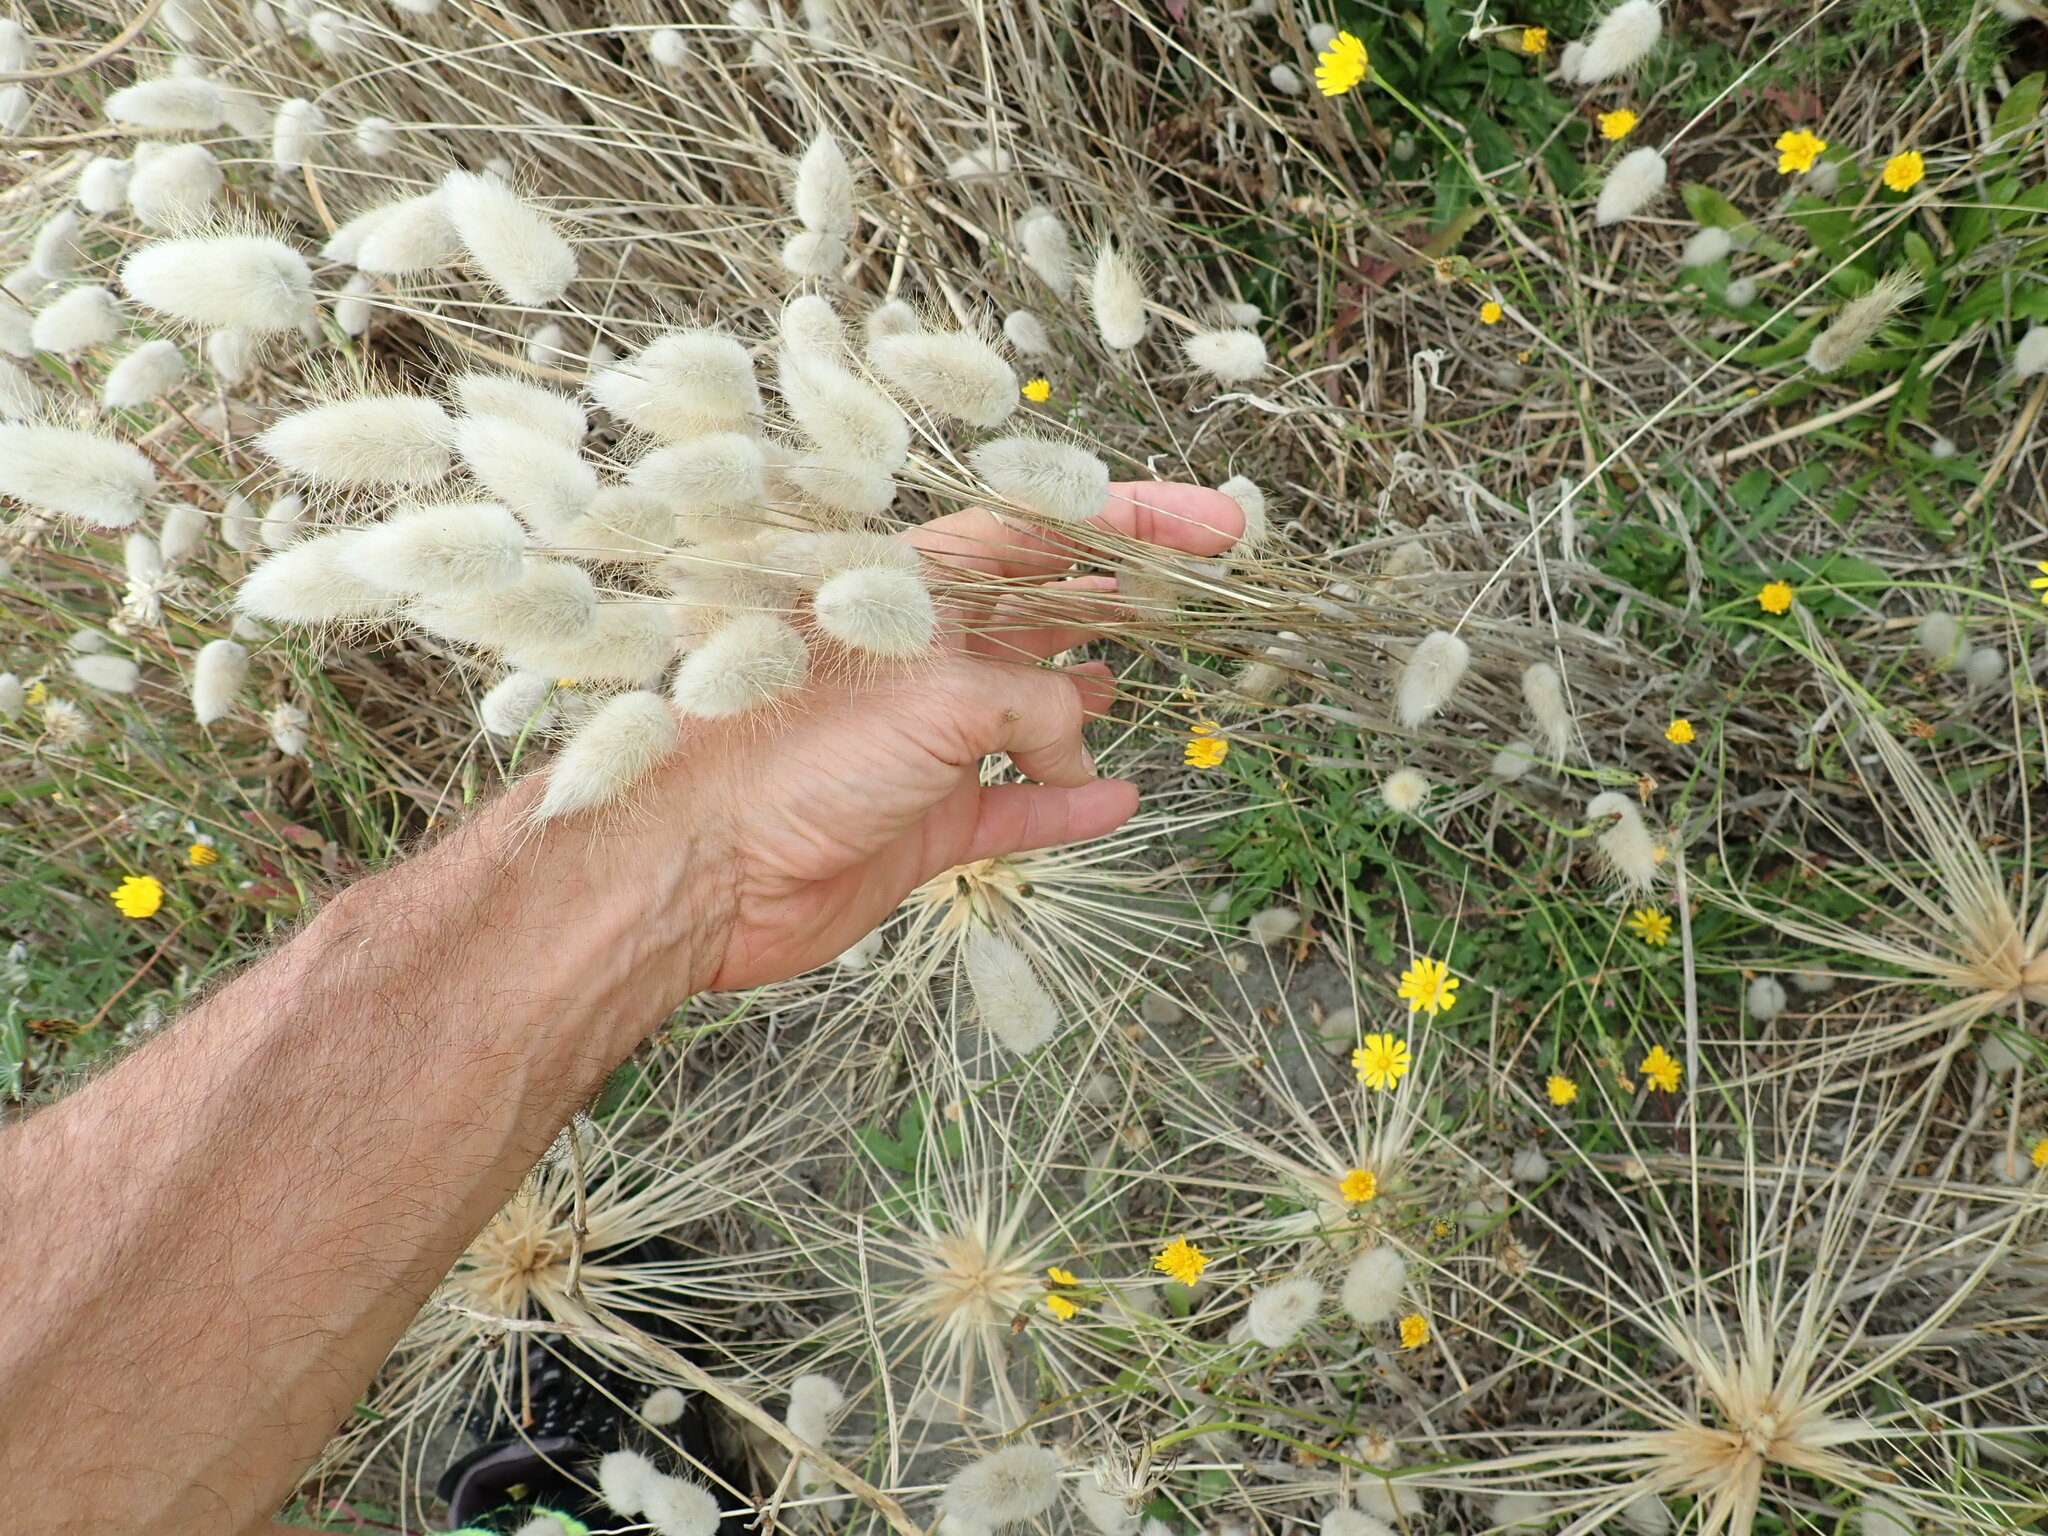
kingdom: Plantae
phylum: Tracheophyta
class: Liliopsida
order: Poales
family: Poaceae
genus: Lagurus
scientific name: Lagurus ovatus
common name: Hare's-tail
